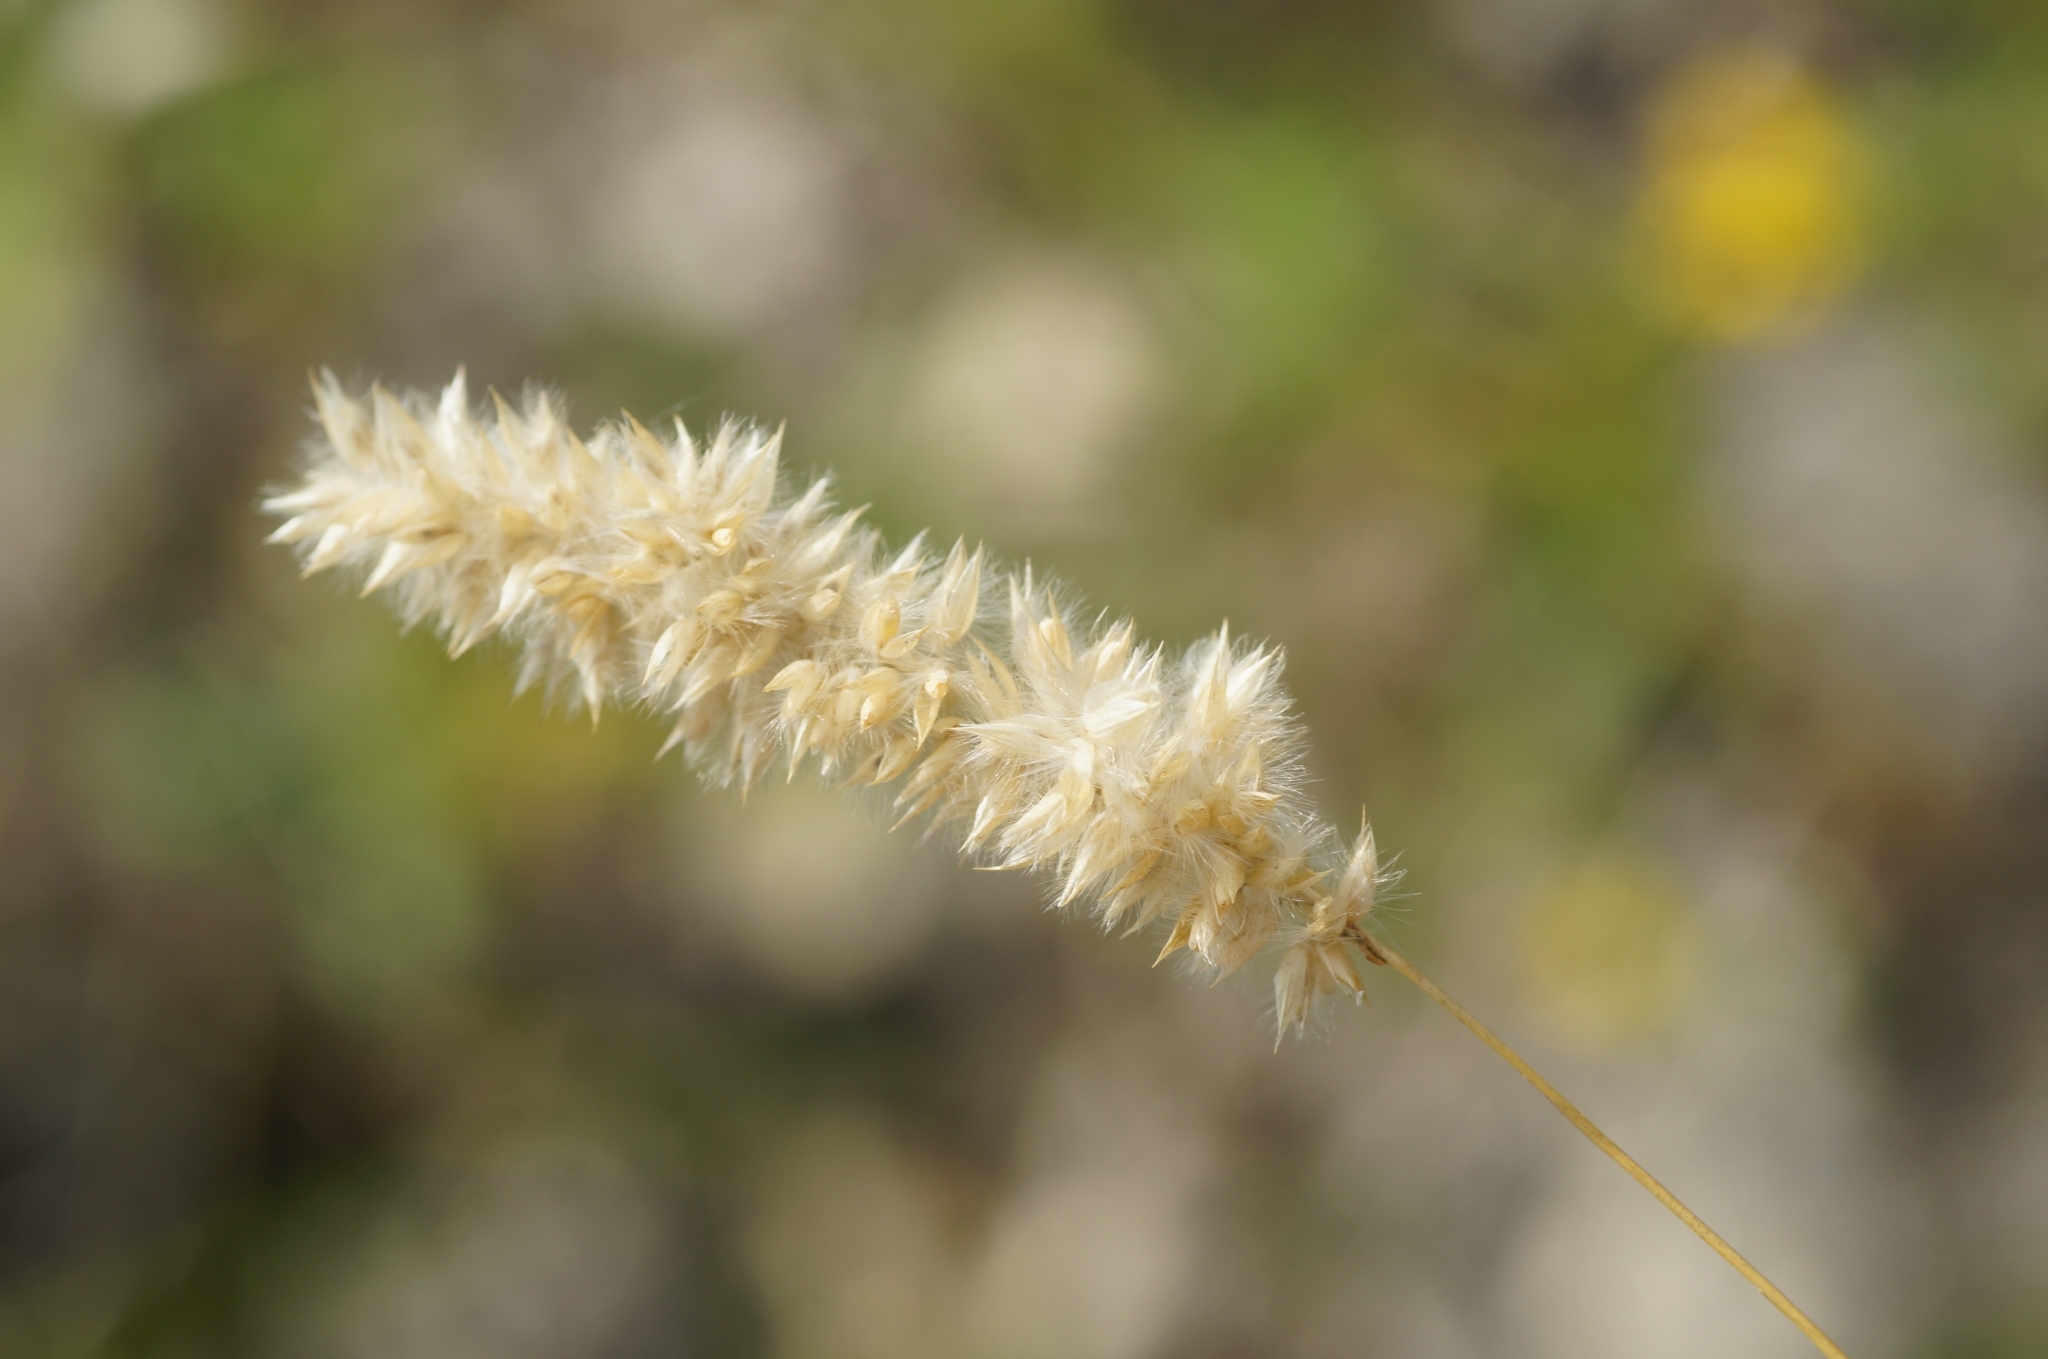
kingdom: Plantae
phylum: Tracheophyta
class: Liliopsida
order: Poales
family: Poaceae
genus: Melica
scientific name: Melica transsilvanica
